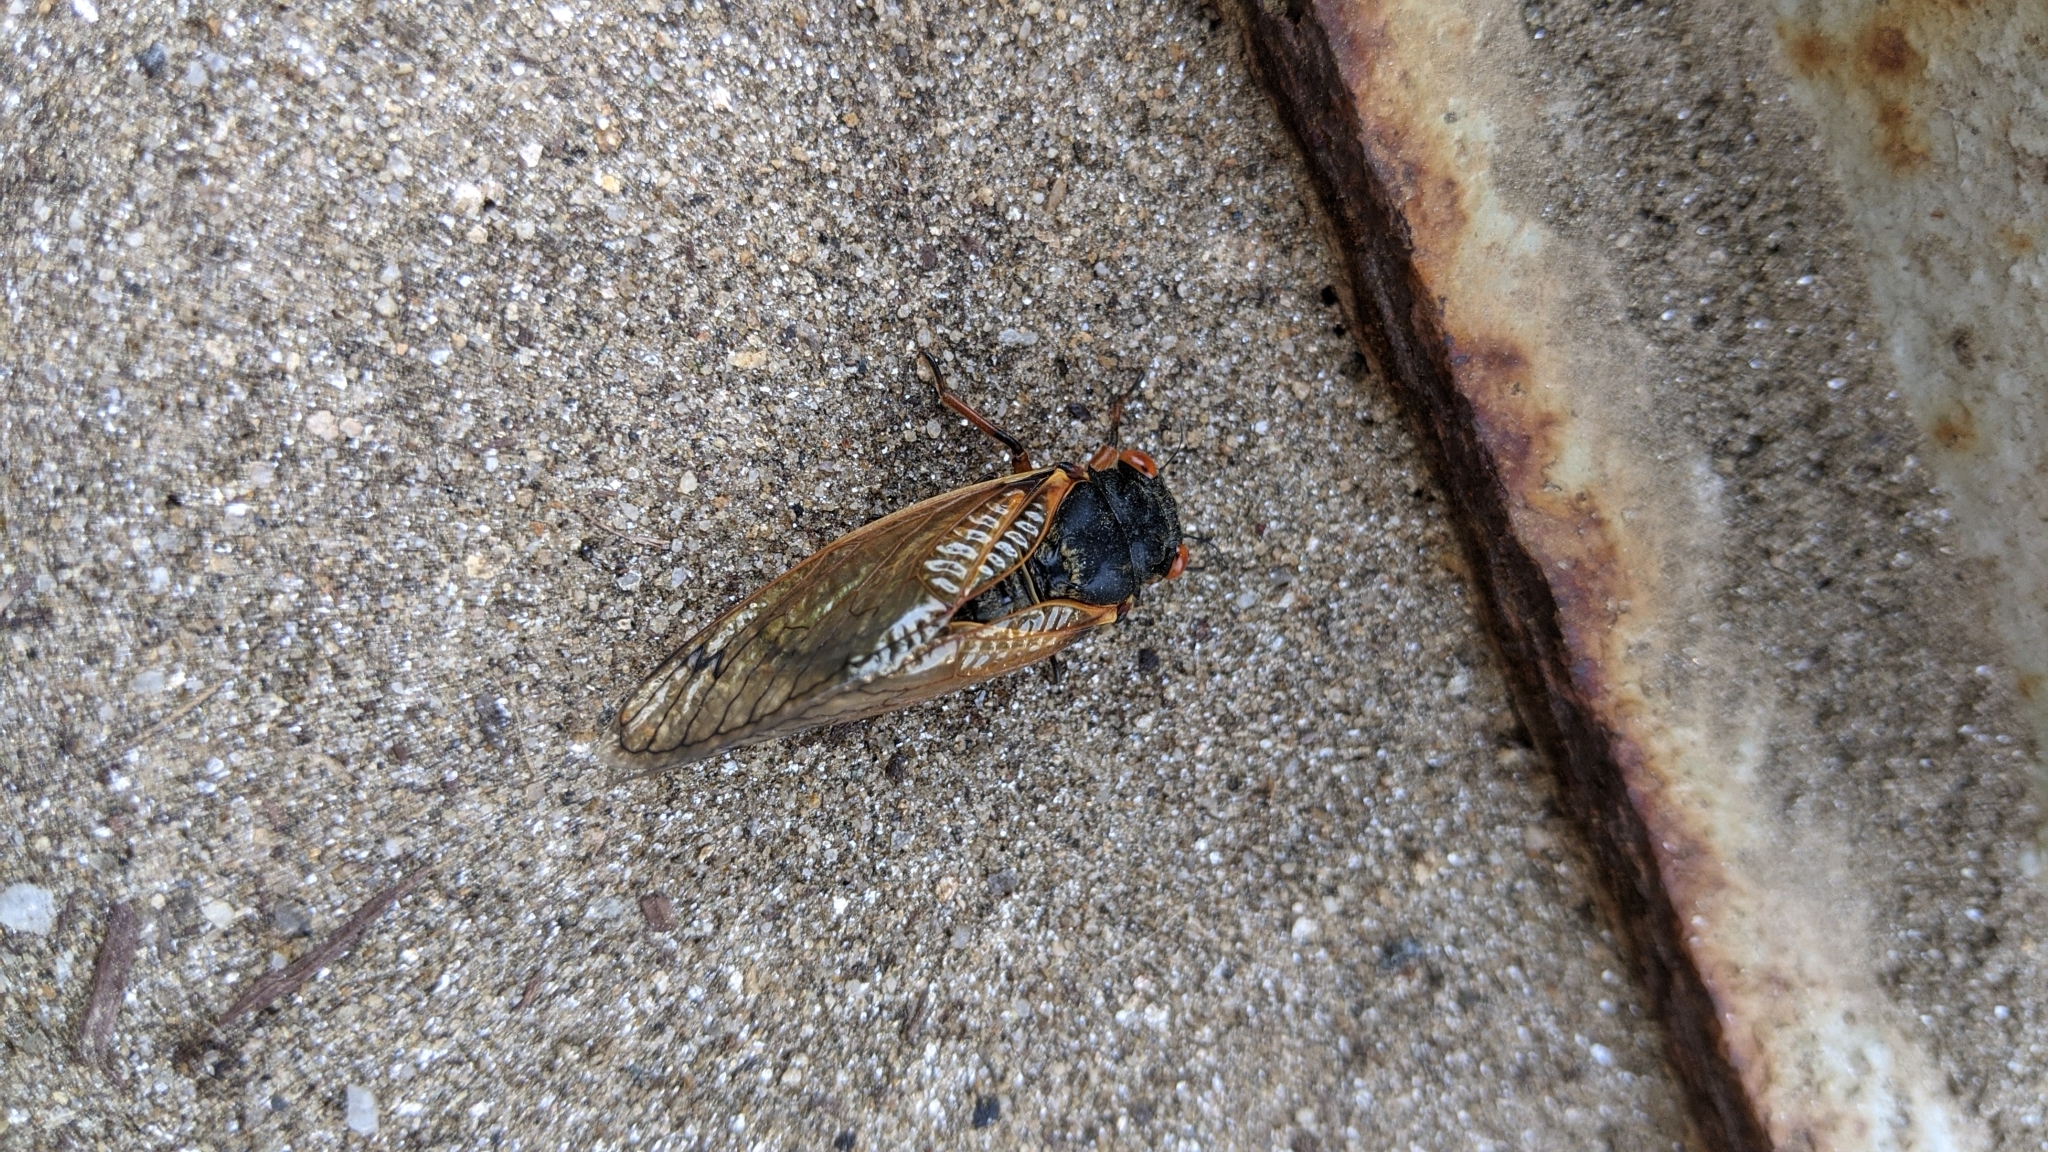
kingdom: Animalia
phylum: Arthropoda
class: Insecta
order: Hemiptera
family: Cicadidae
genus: Magicicada
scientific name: Magicicada
